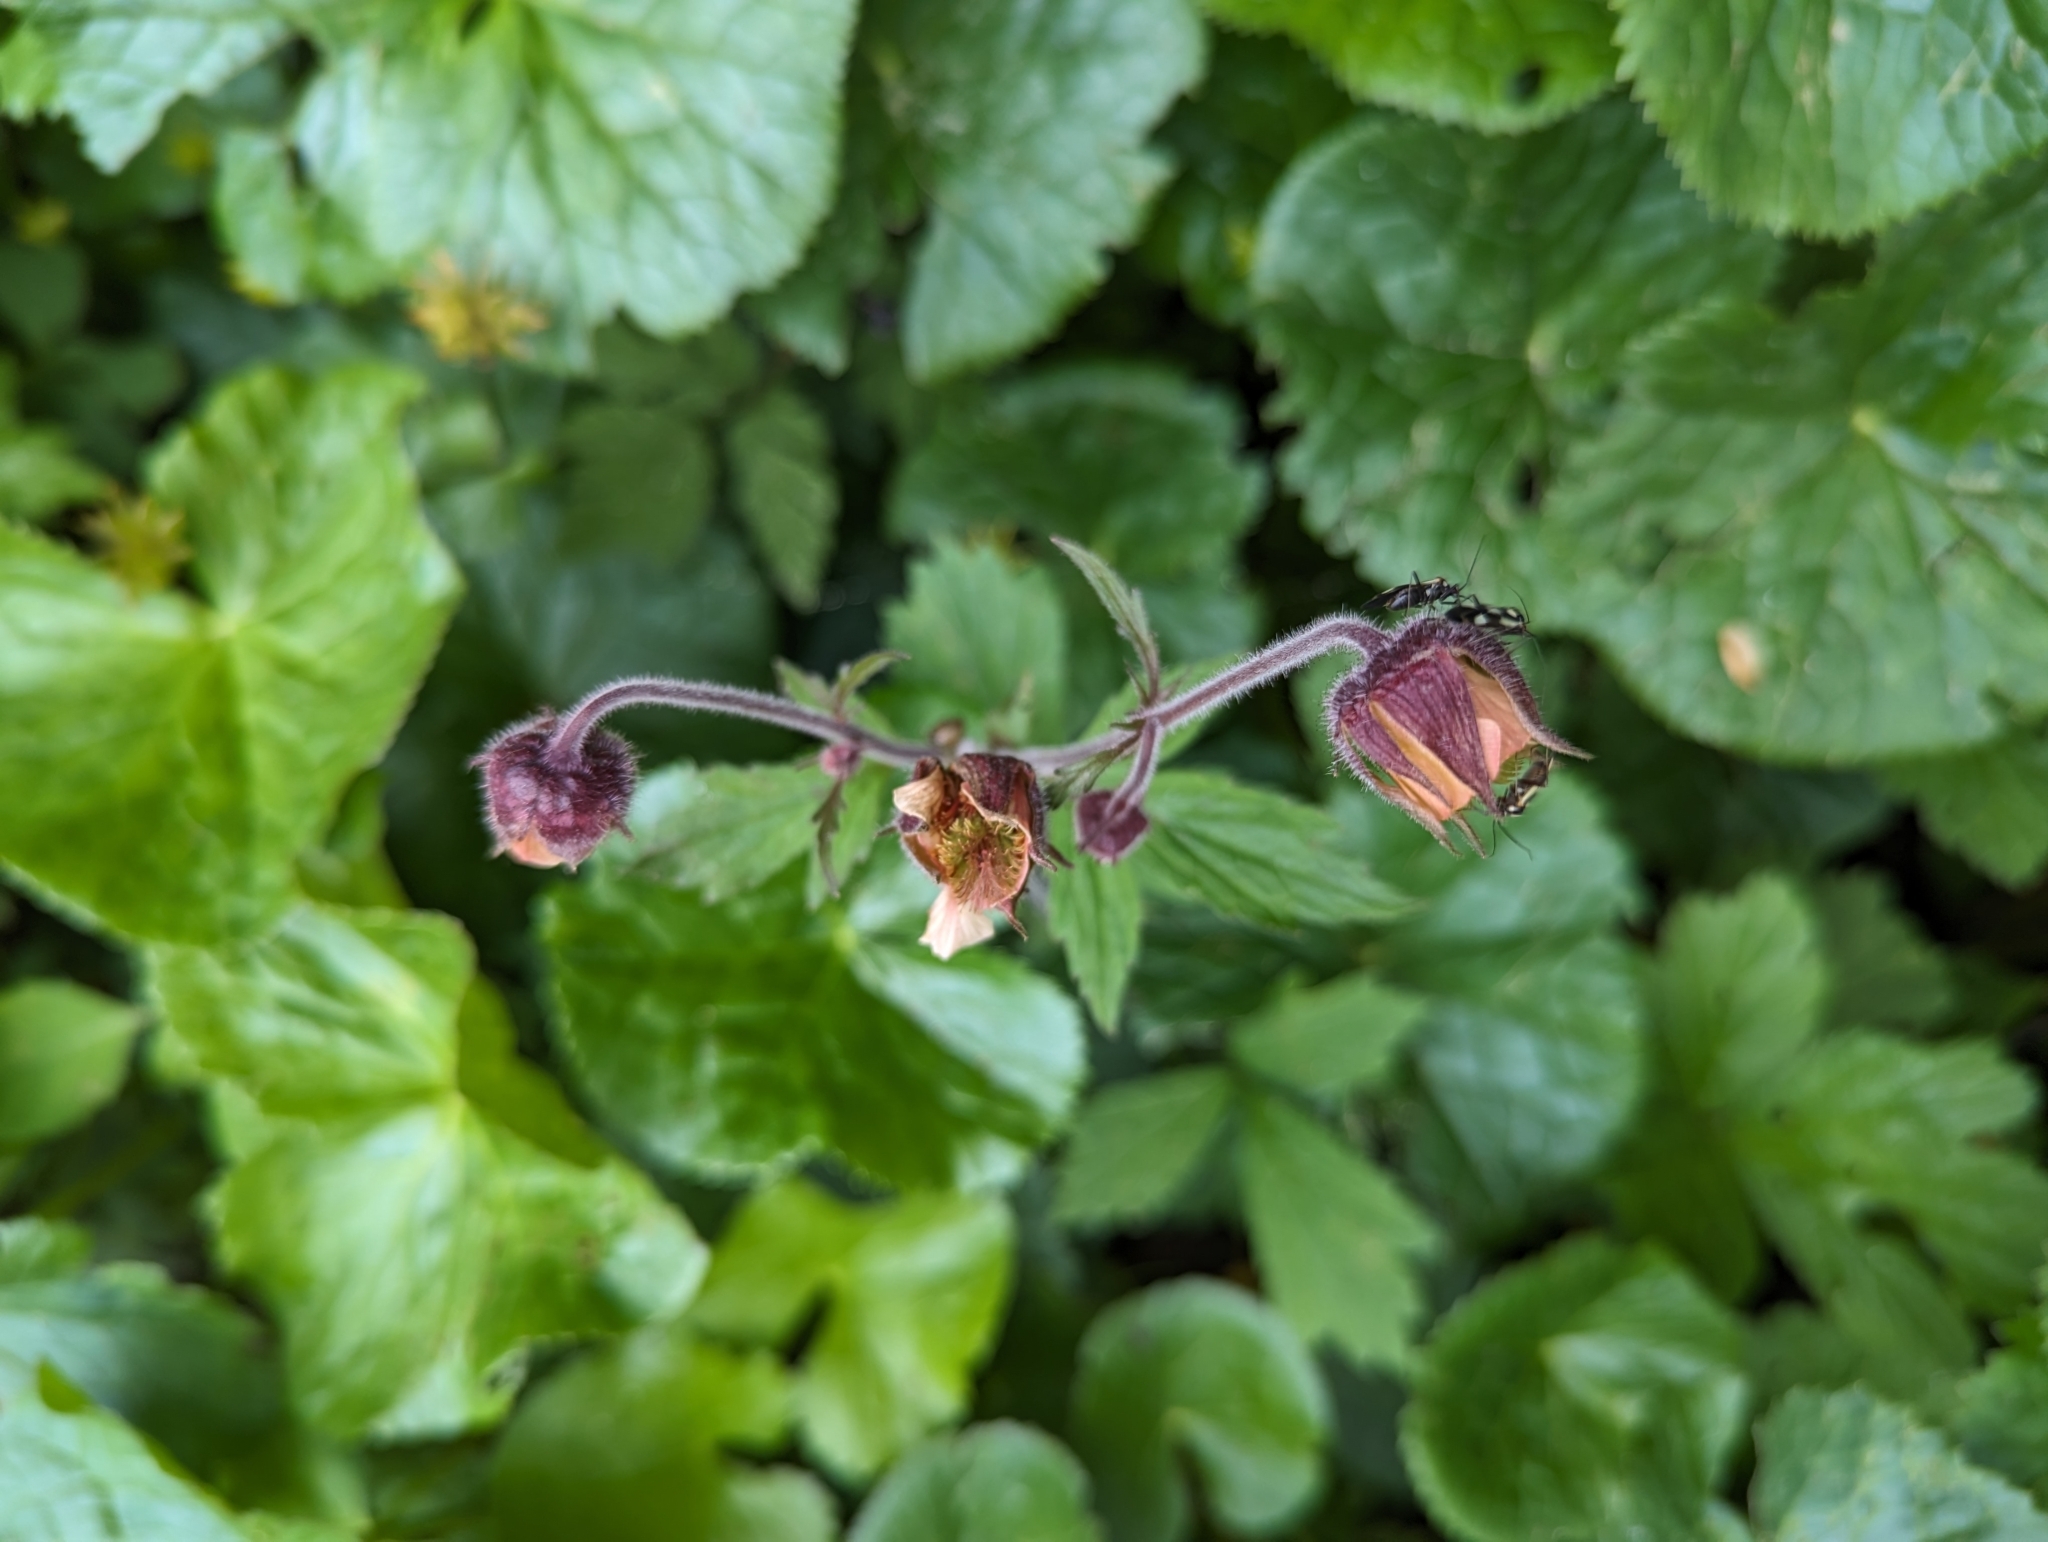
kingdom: Plantae
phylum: Tracheophyta
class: Magnoliopsida
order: Rosales
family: Rosaceae
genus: Geum
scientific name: Geum rivale
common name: Water avens
